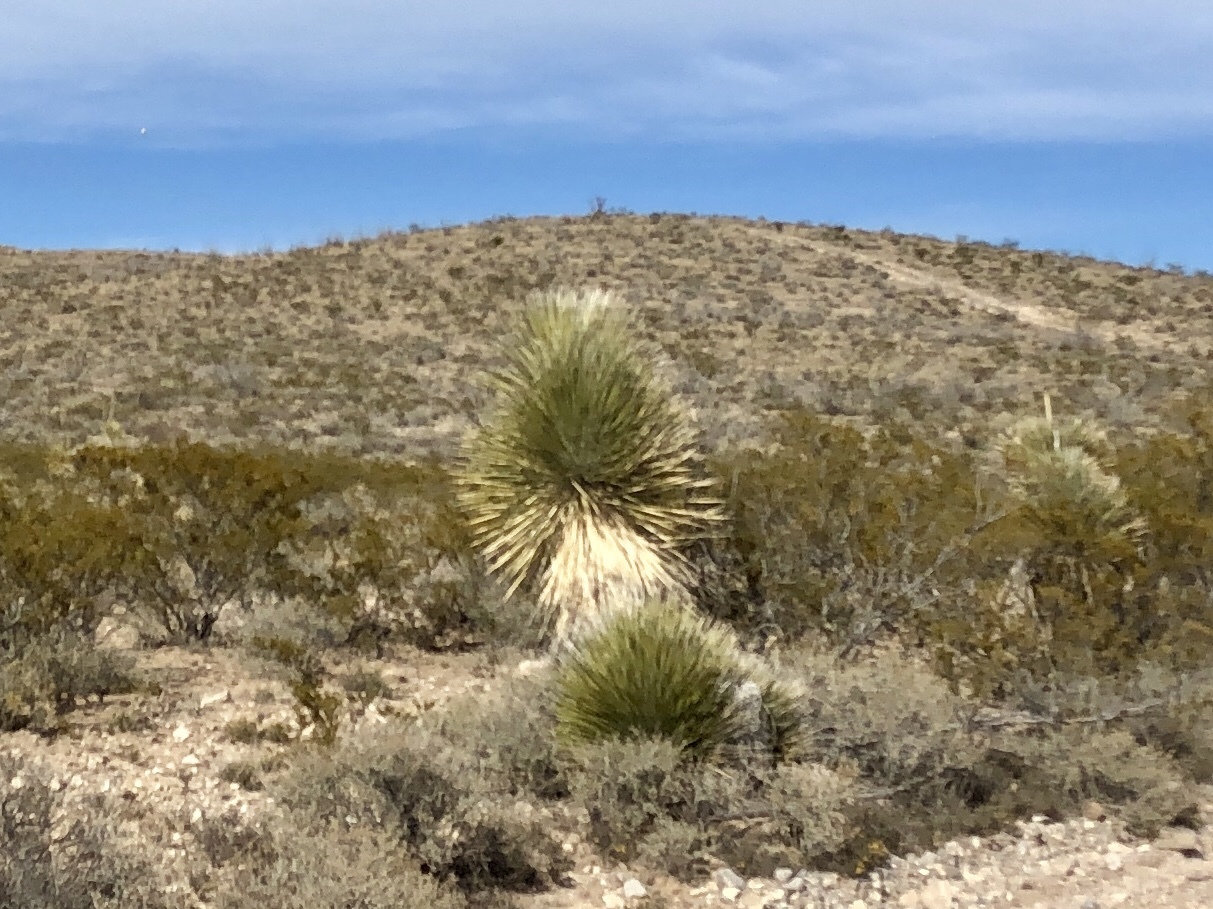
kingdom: Plantae
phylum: Tracheophyta
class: Liliopsida
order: Asparagales
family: Asparagaceae
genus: Yucca
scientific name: Yucca elata
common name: Palmella
